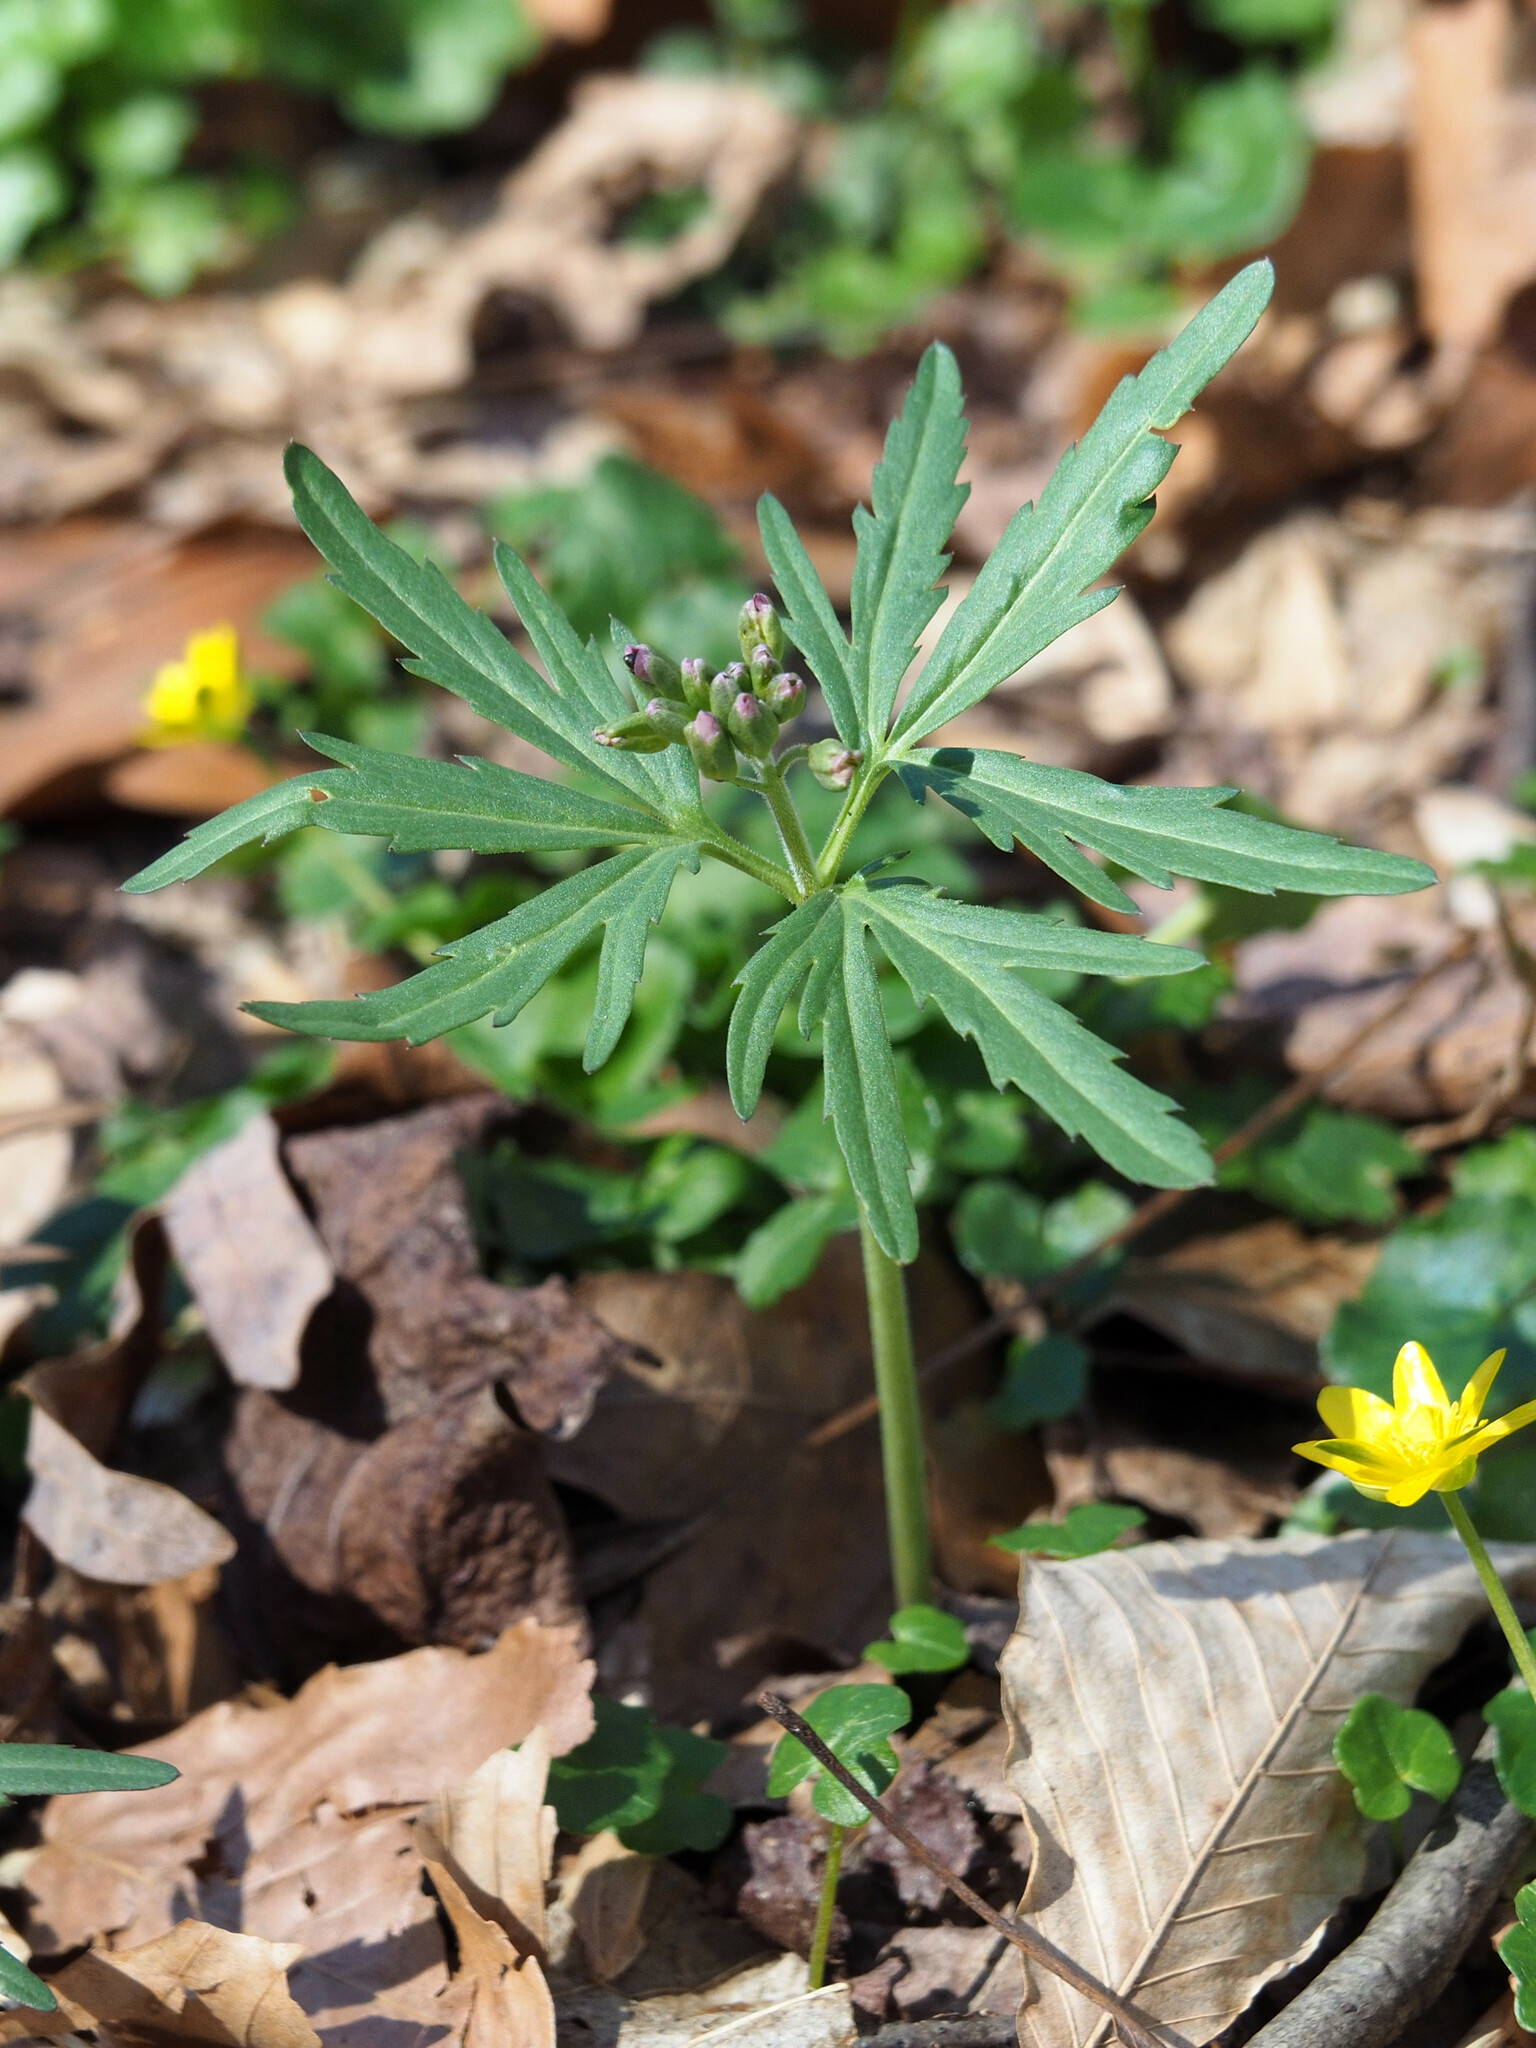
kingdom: Plantae
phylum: Tracheophyta
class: Magnoliopsida
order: Brassicales
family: Brassicaceae
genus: Cardamine
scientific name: Cardamine concatenata
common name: Cut-leaf toothcup
